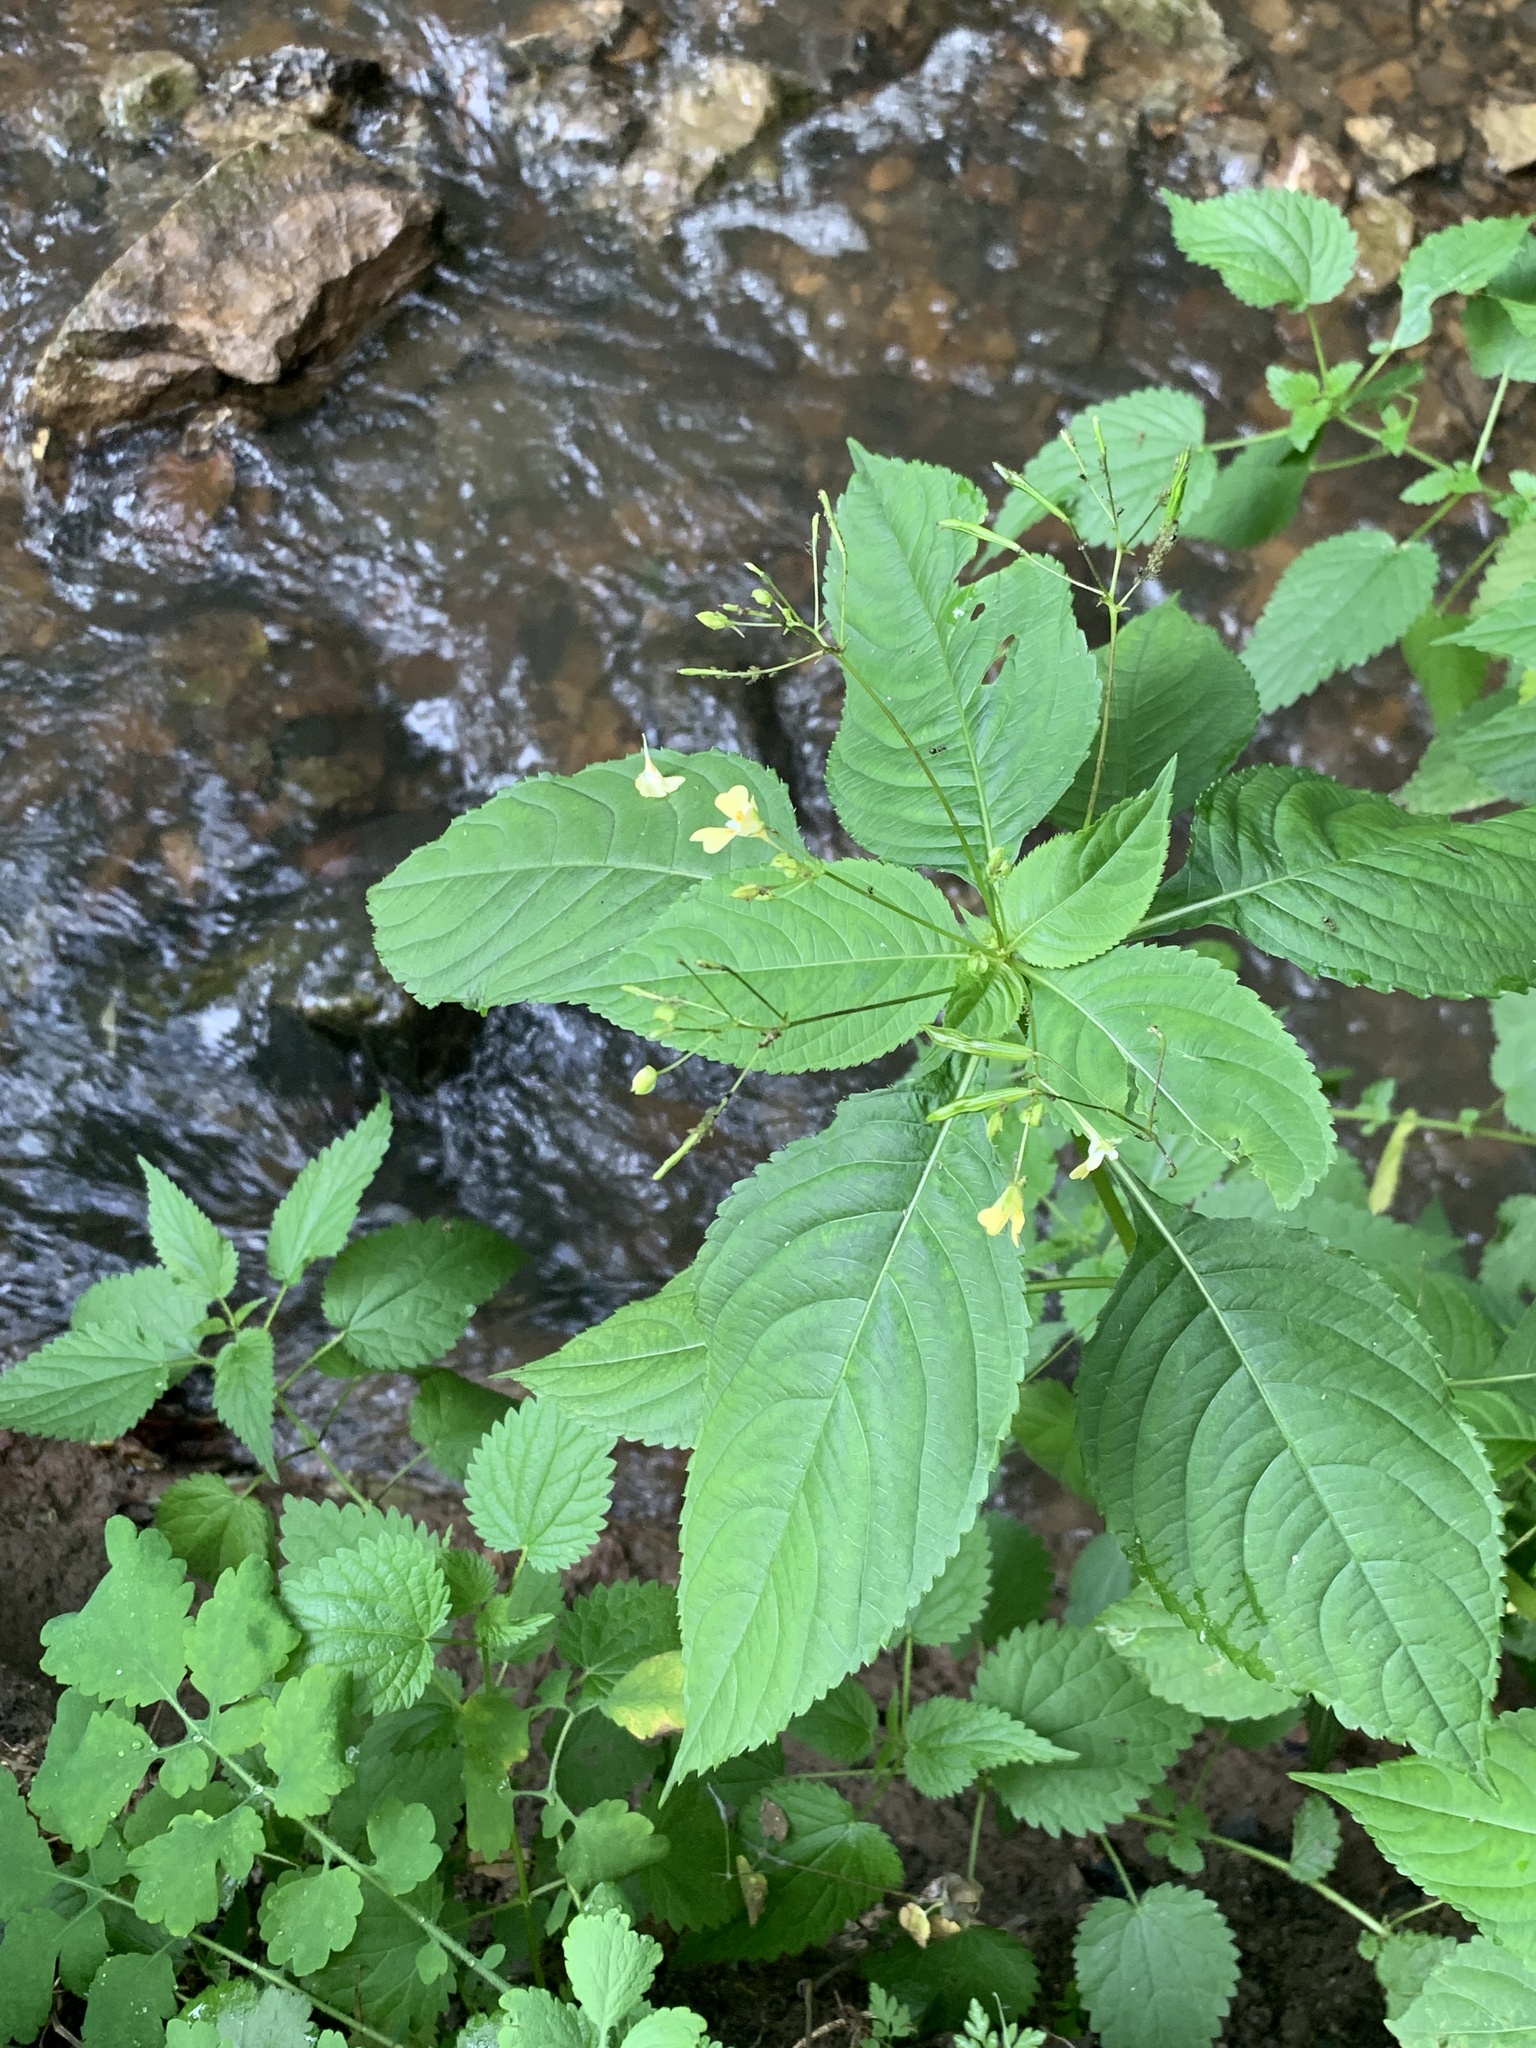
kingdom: Plantae
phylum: Tracheophyta
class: Magnoliopsida
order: Ericales
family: Balsaminaceae
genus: Impatiens
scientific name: Impatiens parviflora
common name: Small balsam
